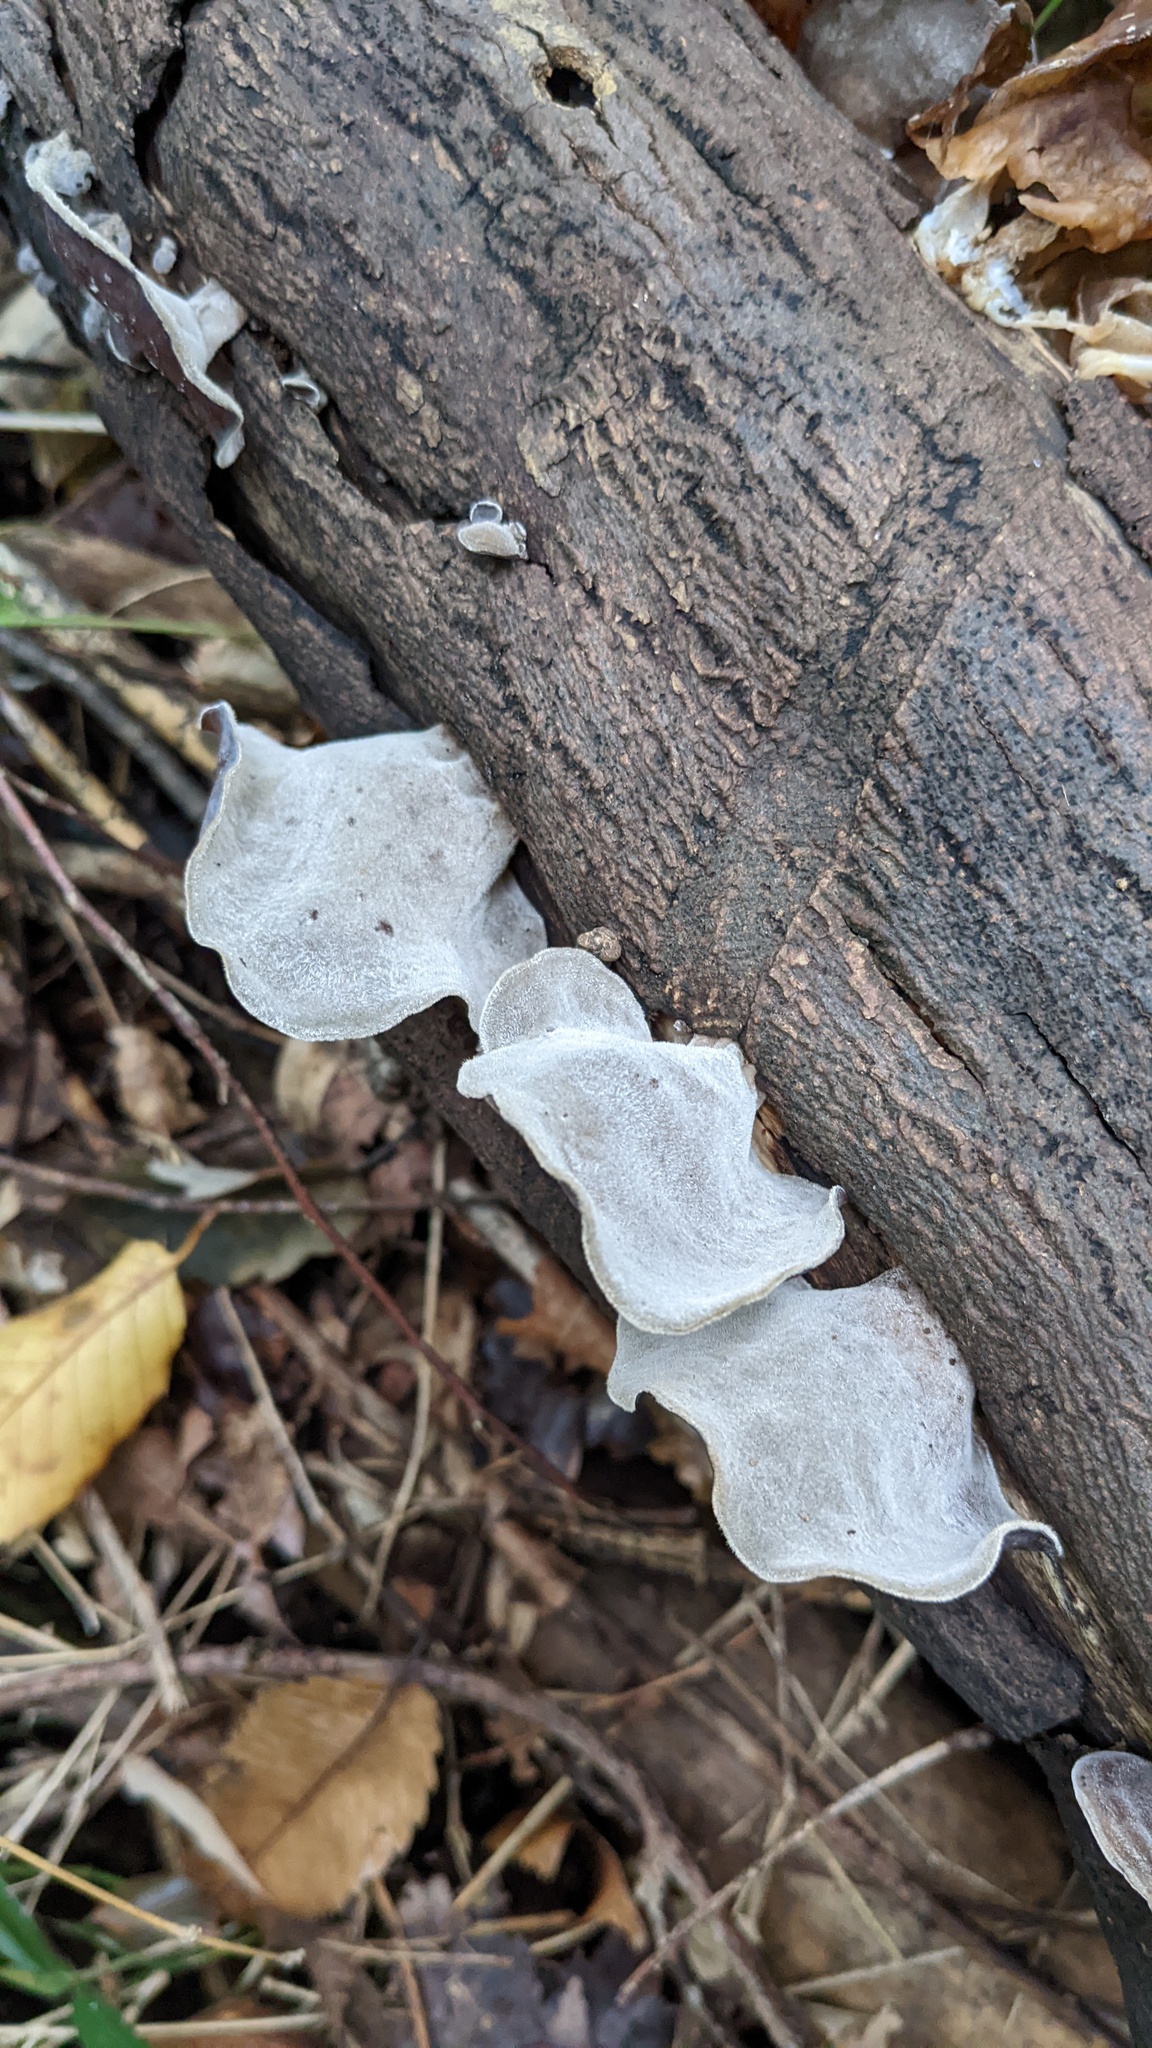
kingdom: Fungi
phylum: Basidiomycota
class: Agaricomycetes
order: Auriculariales
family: Auriculariaceae
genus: Auricularia
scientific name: Auricularia nigricans
